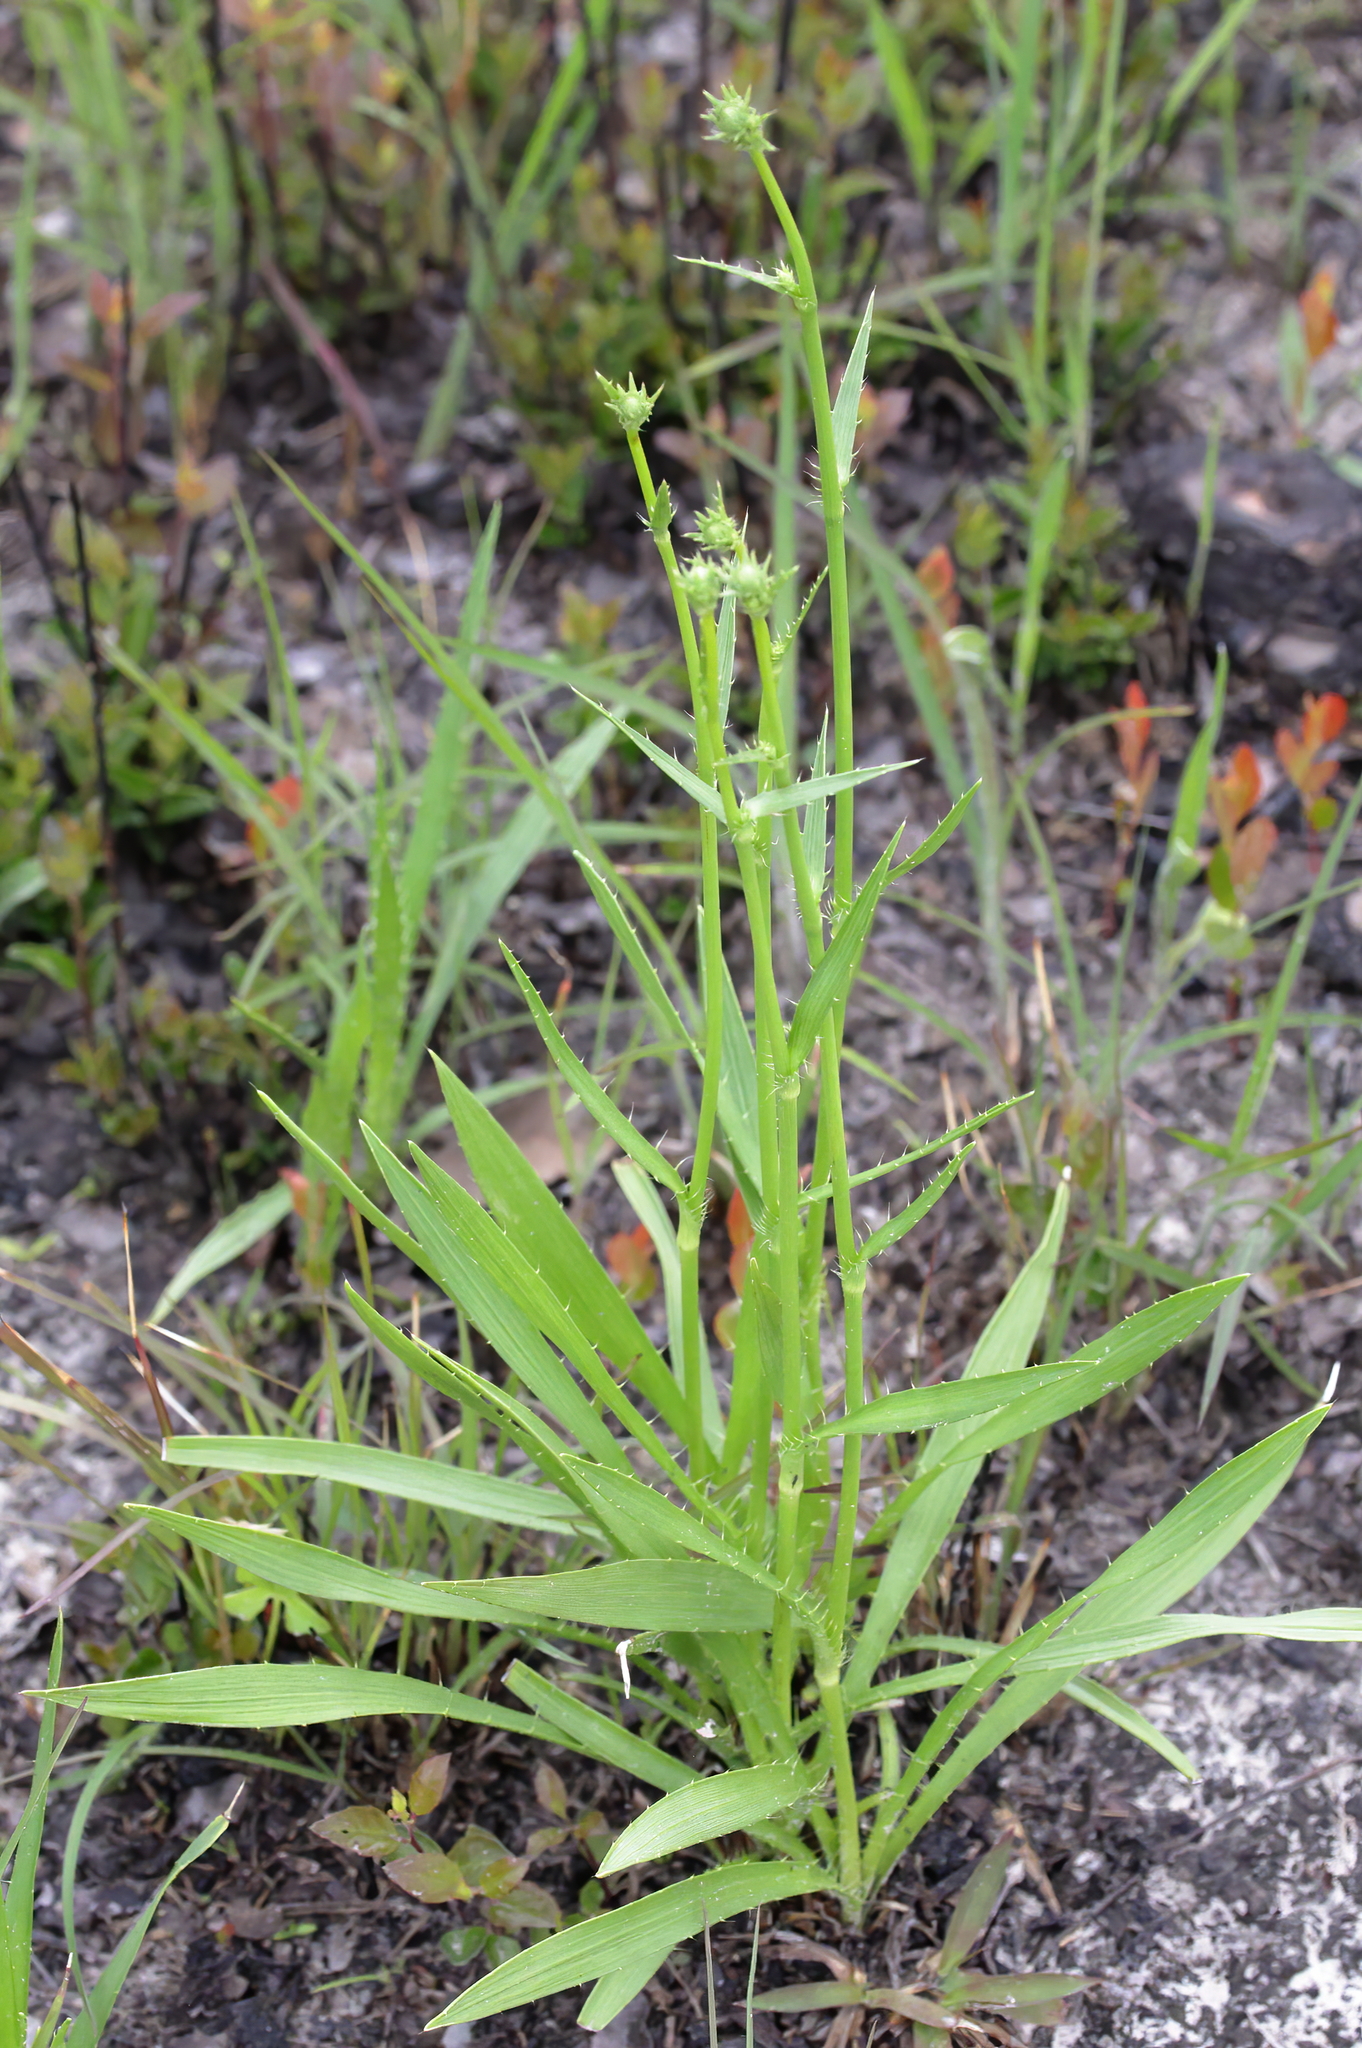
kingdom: Plantae
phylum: Tracheophyta
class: Magnoliopsida
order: Apiales
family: Apiaceae
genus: Eryngium
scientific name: Eryngium yuccifolium
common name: Button eryngo
